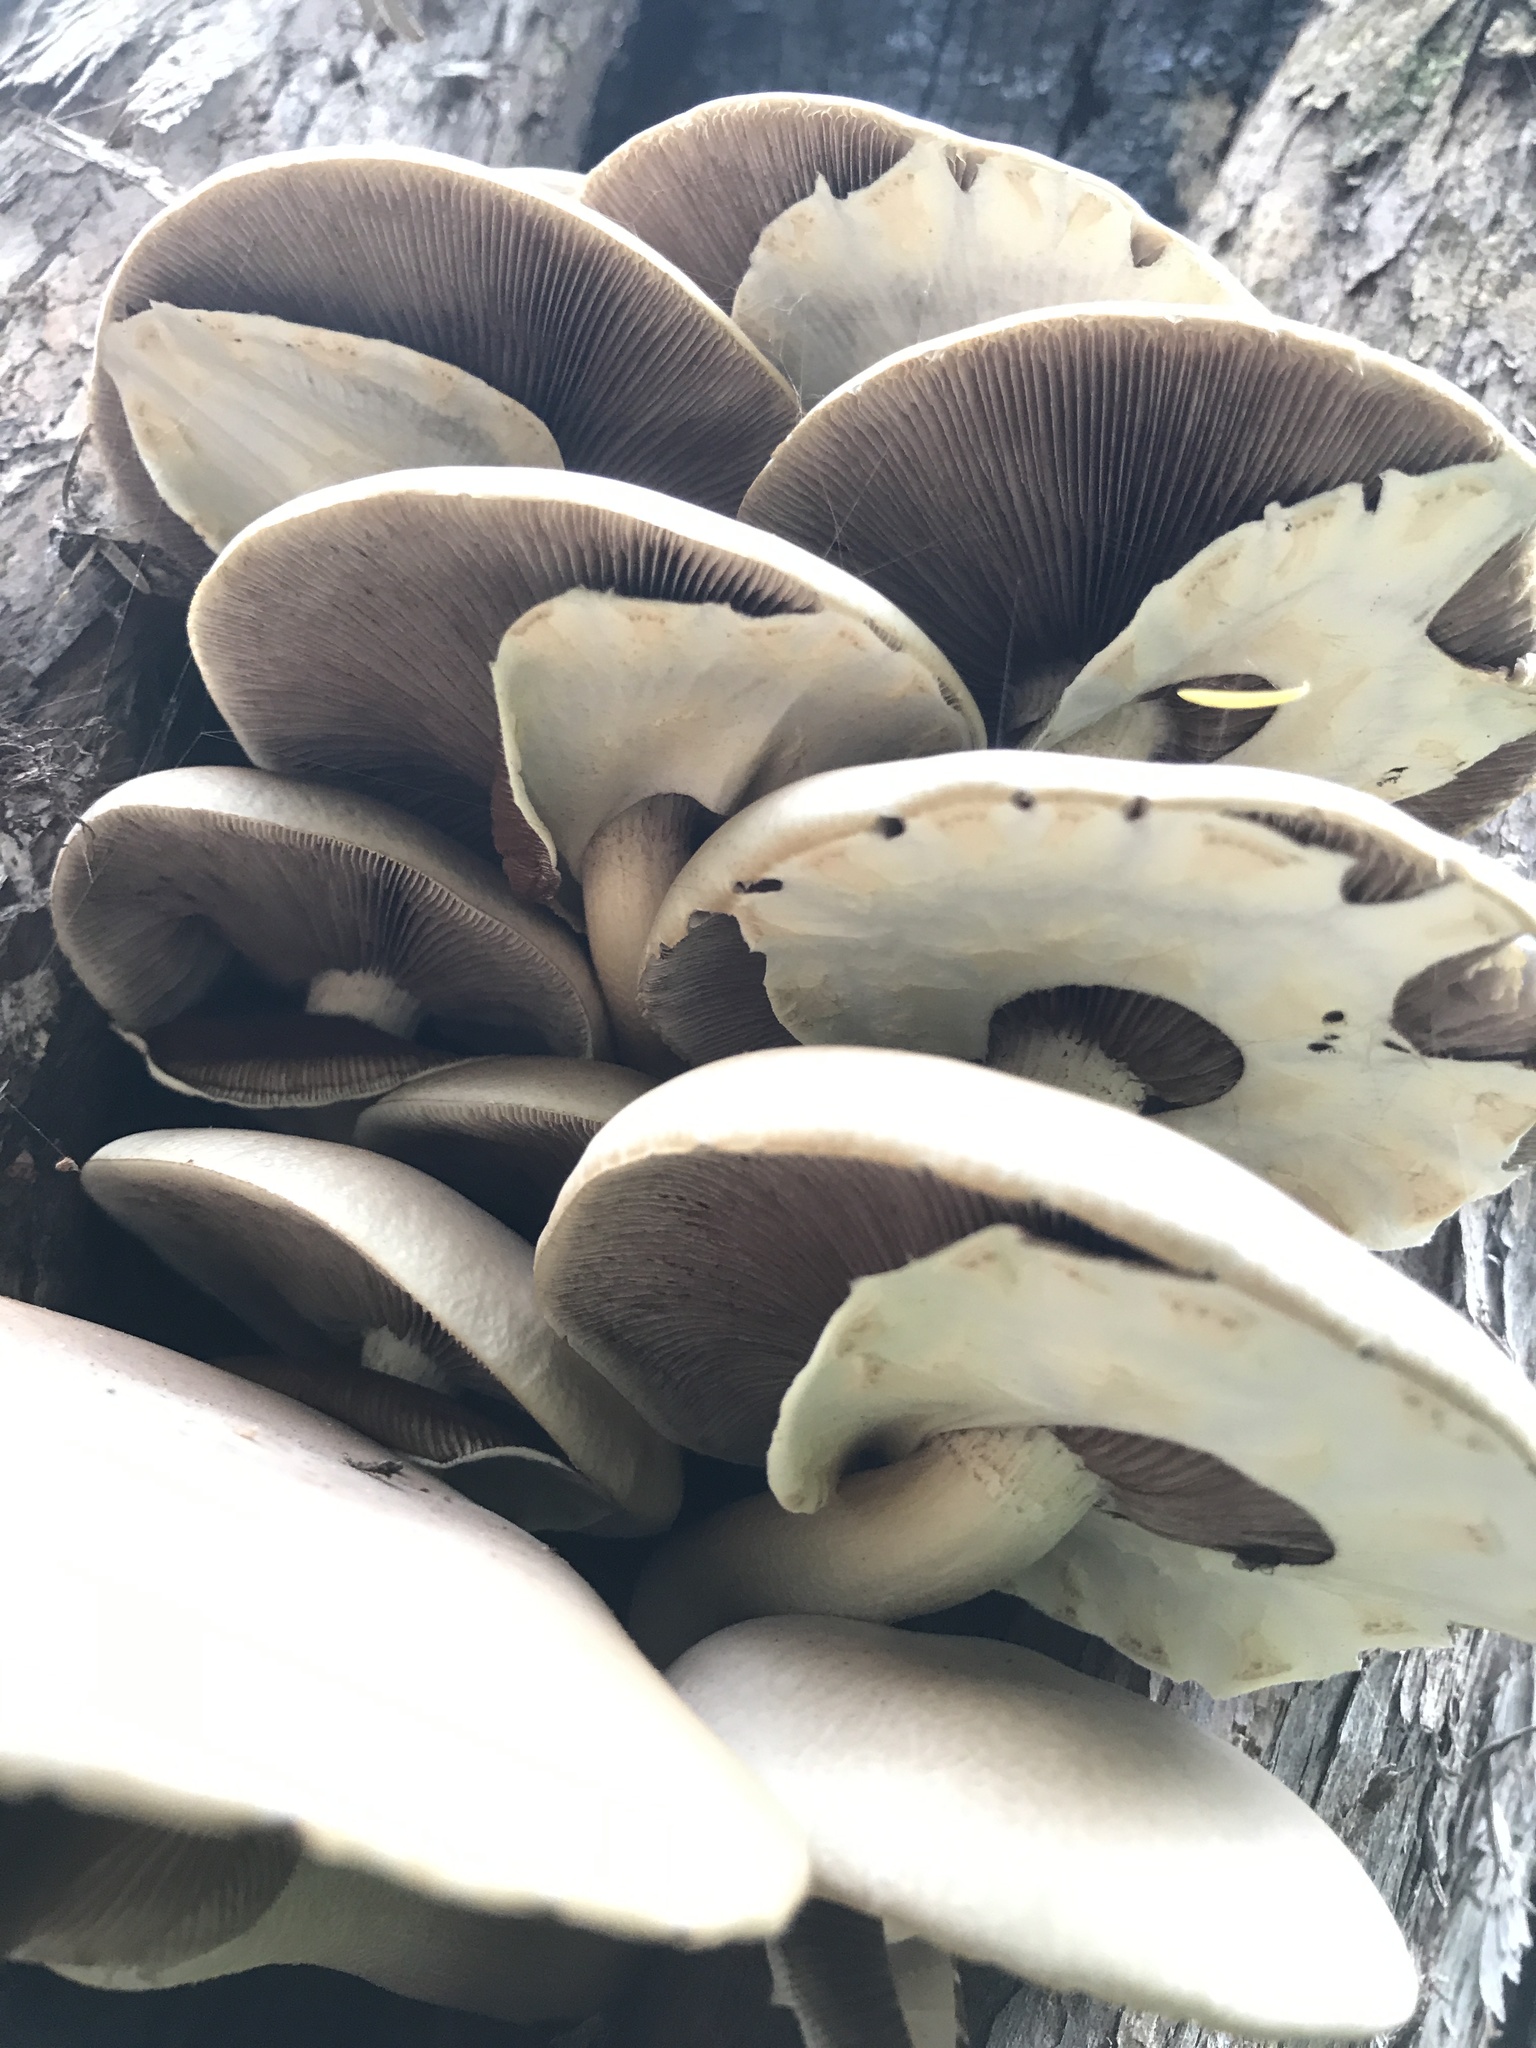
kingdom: Fungi
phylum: Basidiomycota
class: Agaricomycetes
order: Agaricales
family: Tubariaceae
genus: Cyclocybe
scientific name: Cyclocybe parasitica
